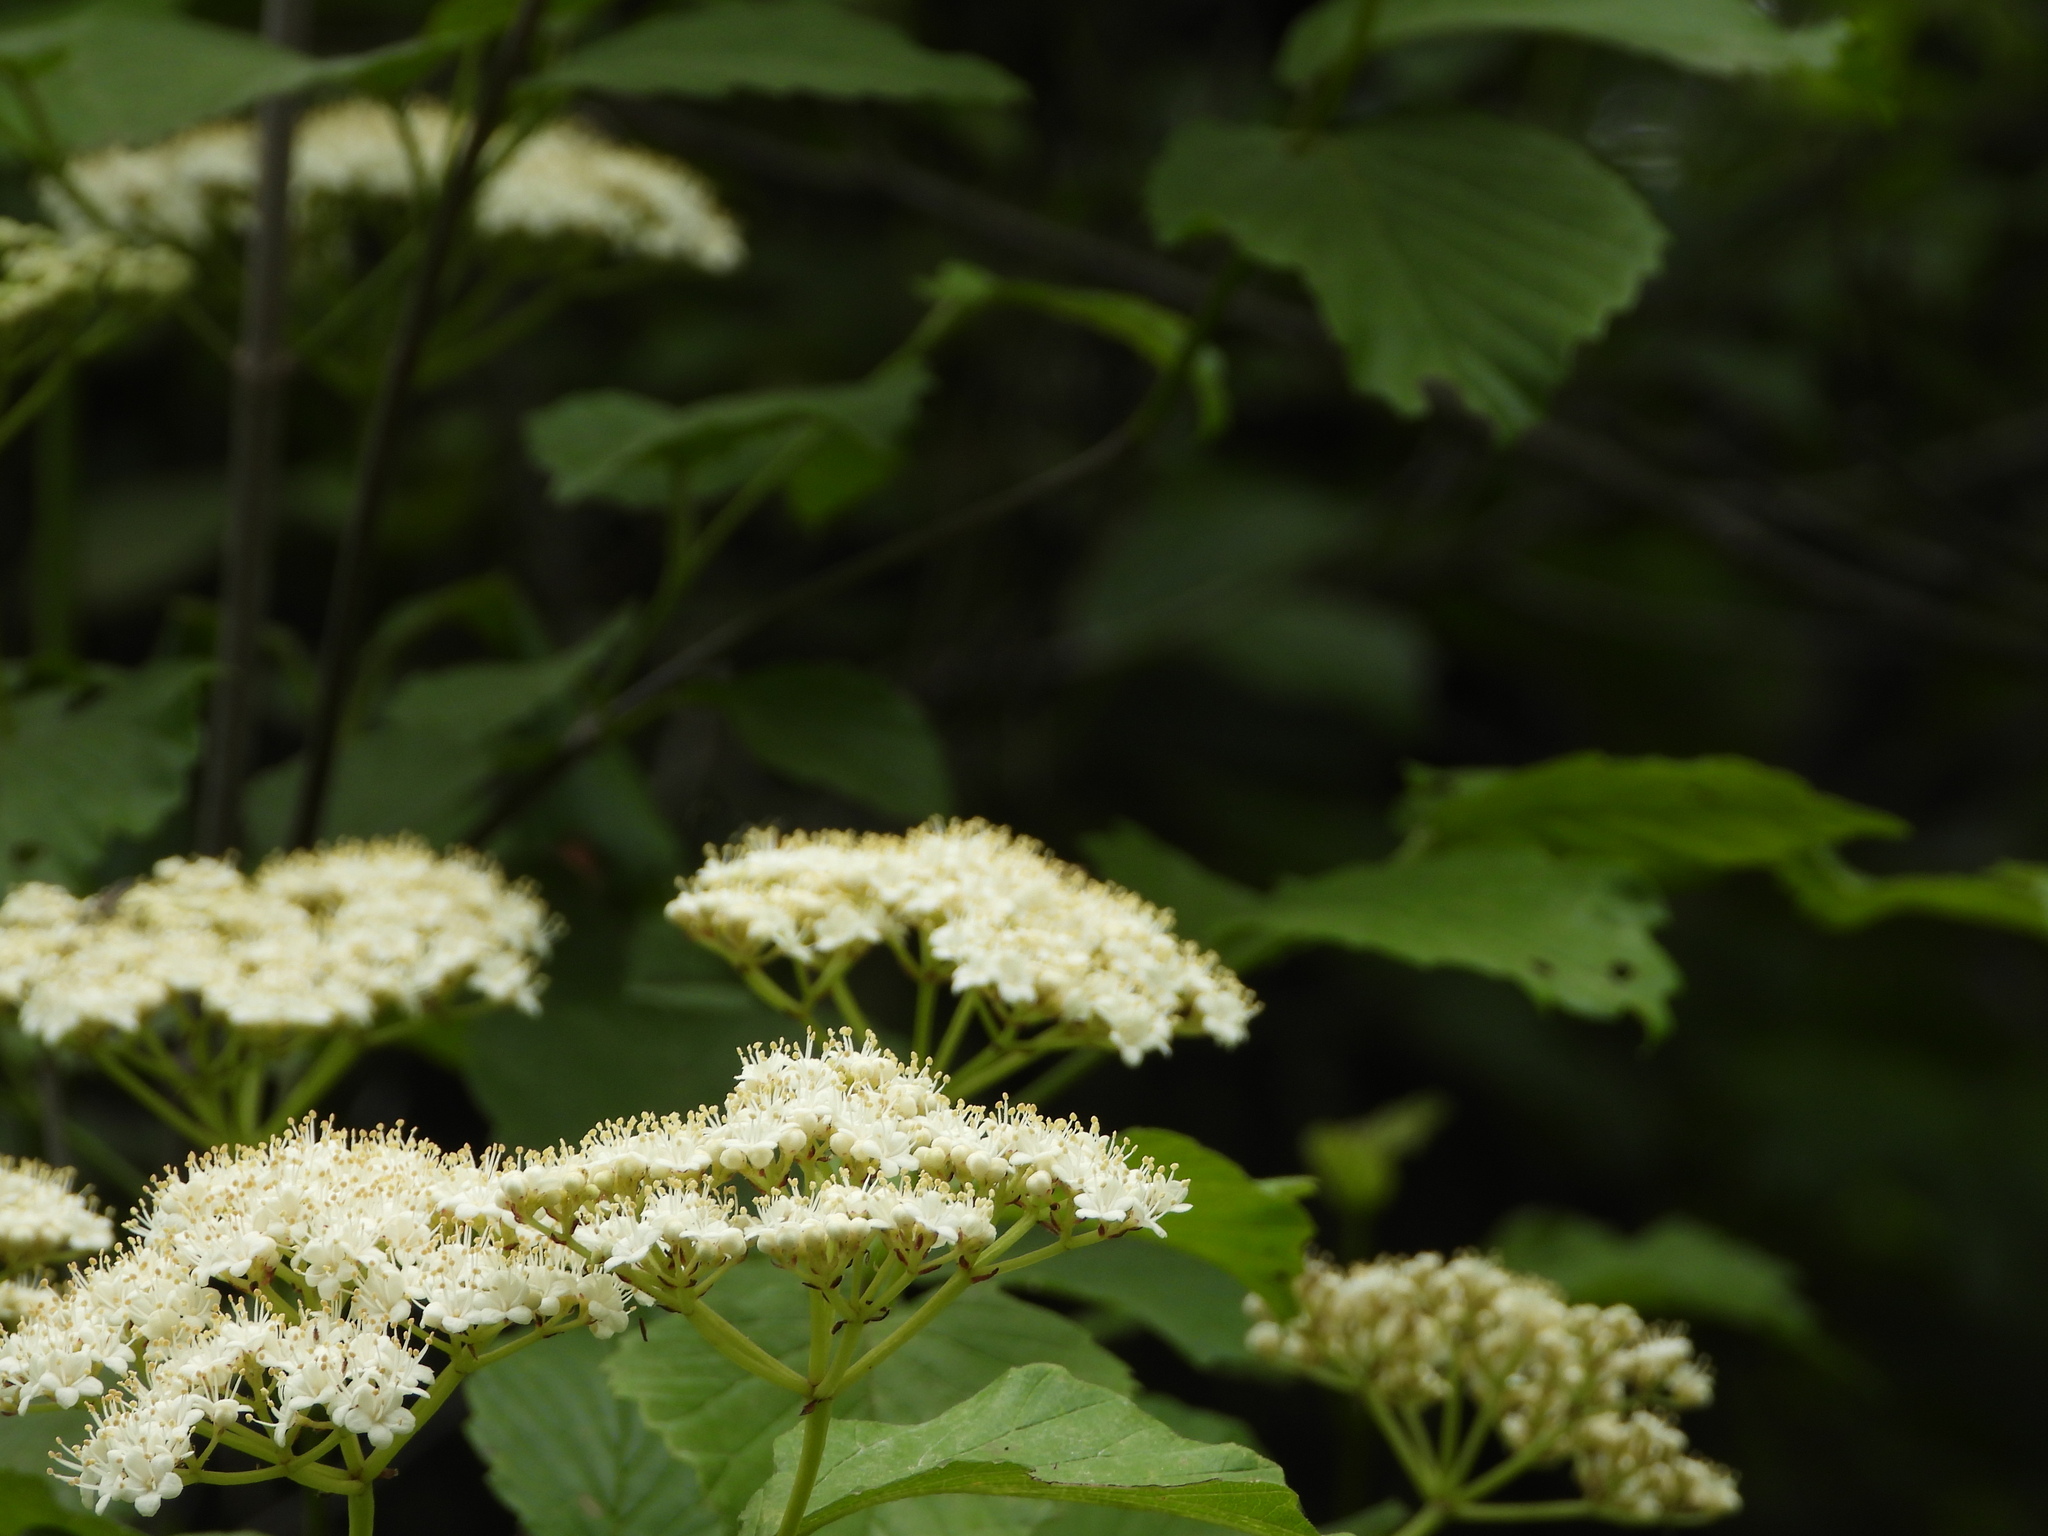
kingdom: Plantae
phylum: Tracheophyta
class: Magnoliopsida
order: Dipsacales
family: Viburnaceae
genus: Viburnum
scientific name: Viburnum alabamense
